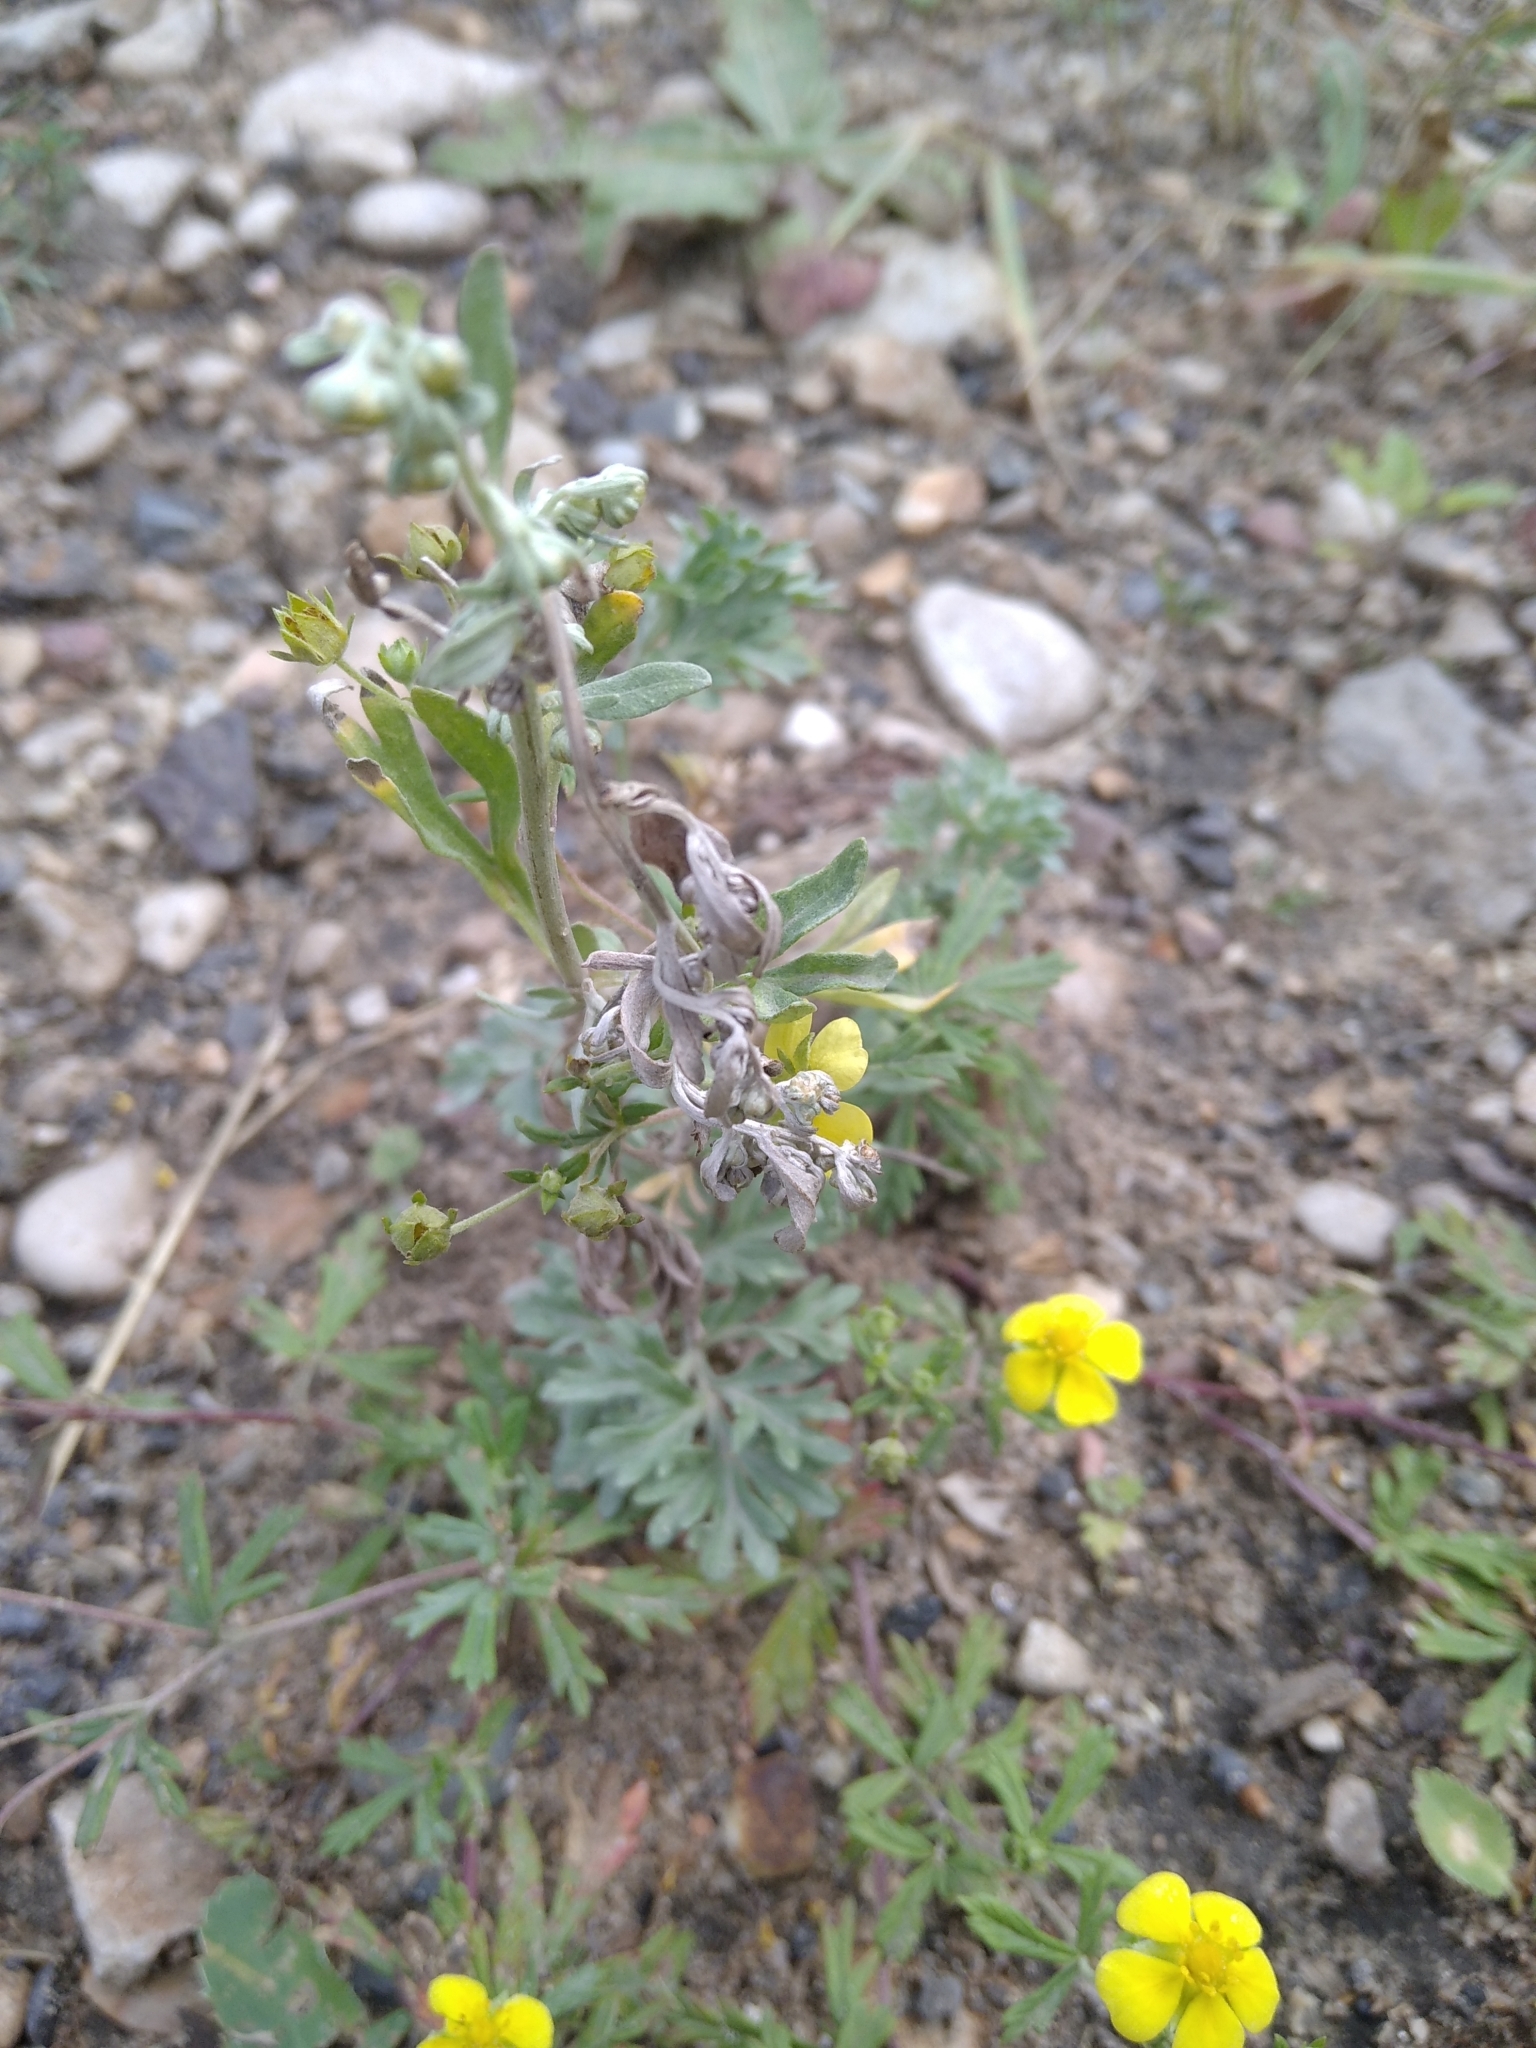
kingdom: Plantae
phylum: Tracheophyta
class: Magnoliopsida
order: Rosales
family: Rosaceae
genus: Potentilla
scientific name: Potentilla argentea
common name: Hoary cinquefoil
